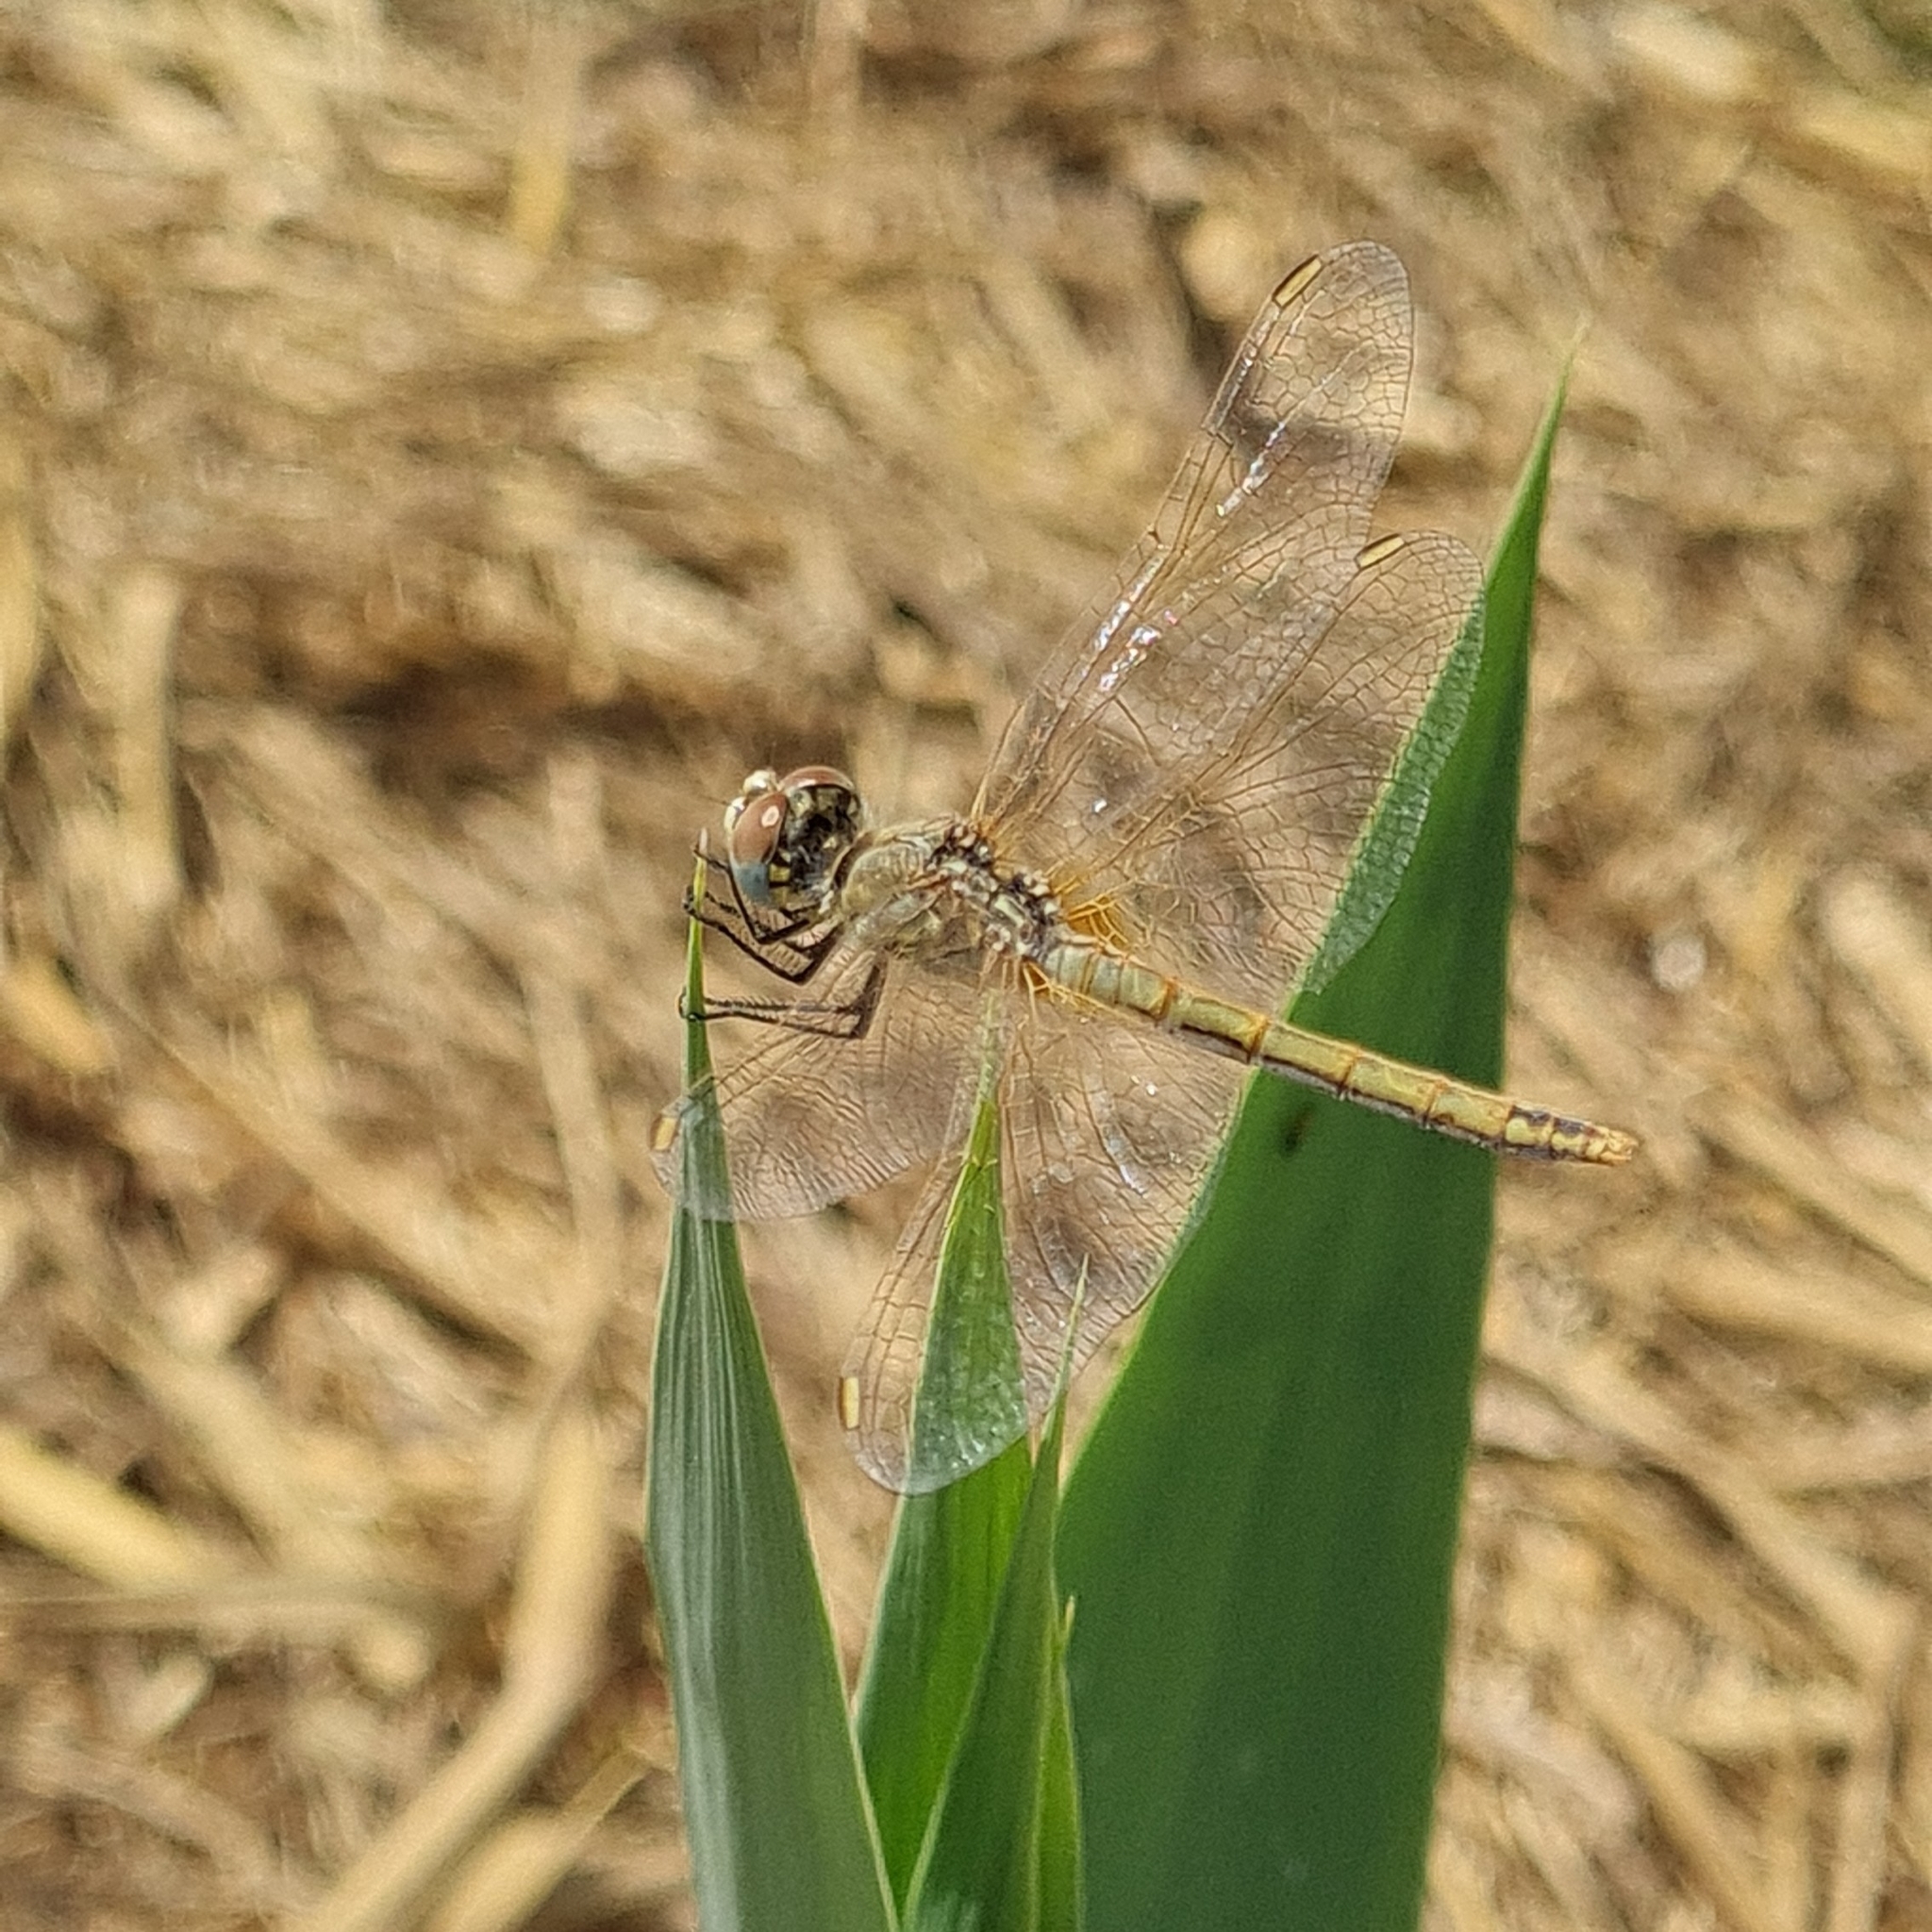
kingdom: Animalia
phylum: Arthropoda
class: Insecta
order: Odonata
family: Libellulidae
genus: Sympetrum
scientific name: Sympetrum fonscolombii
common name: Red-veined darter
